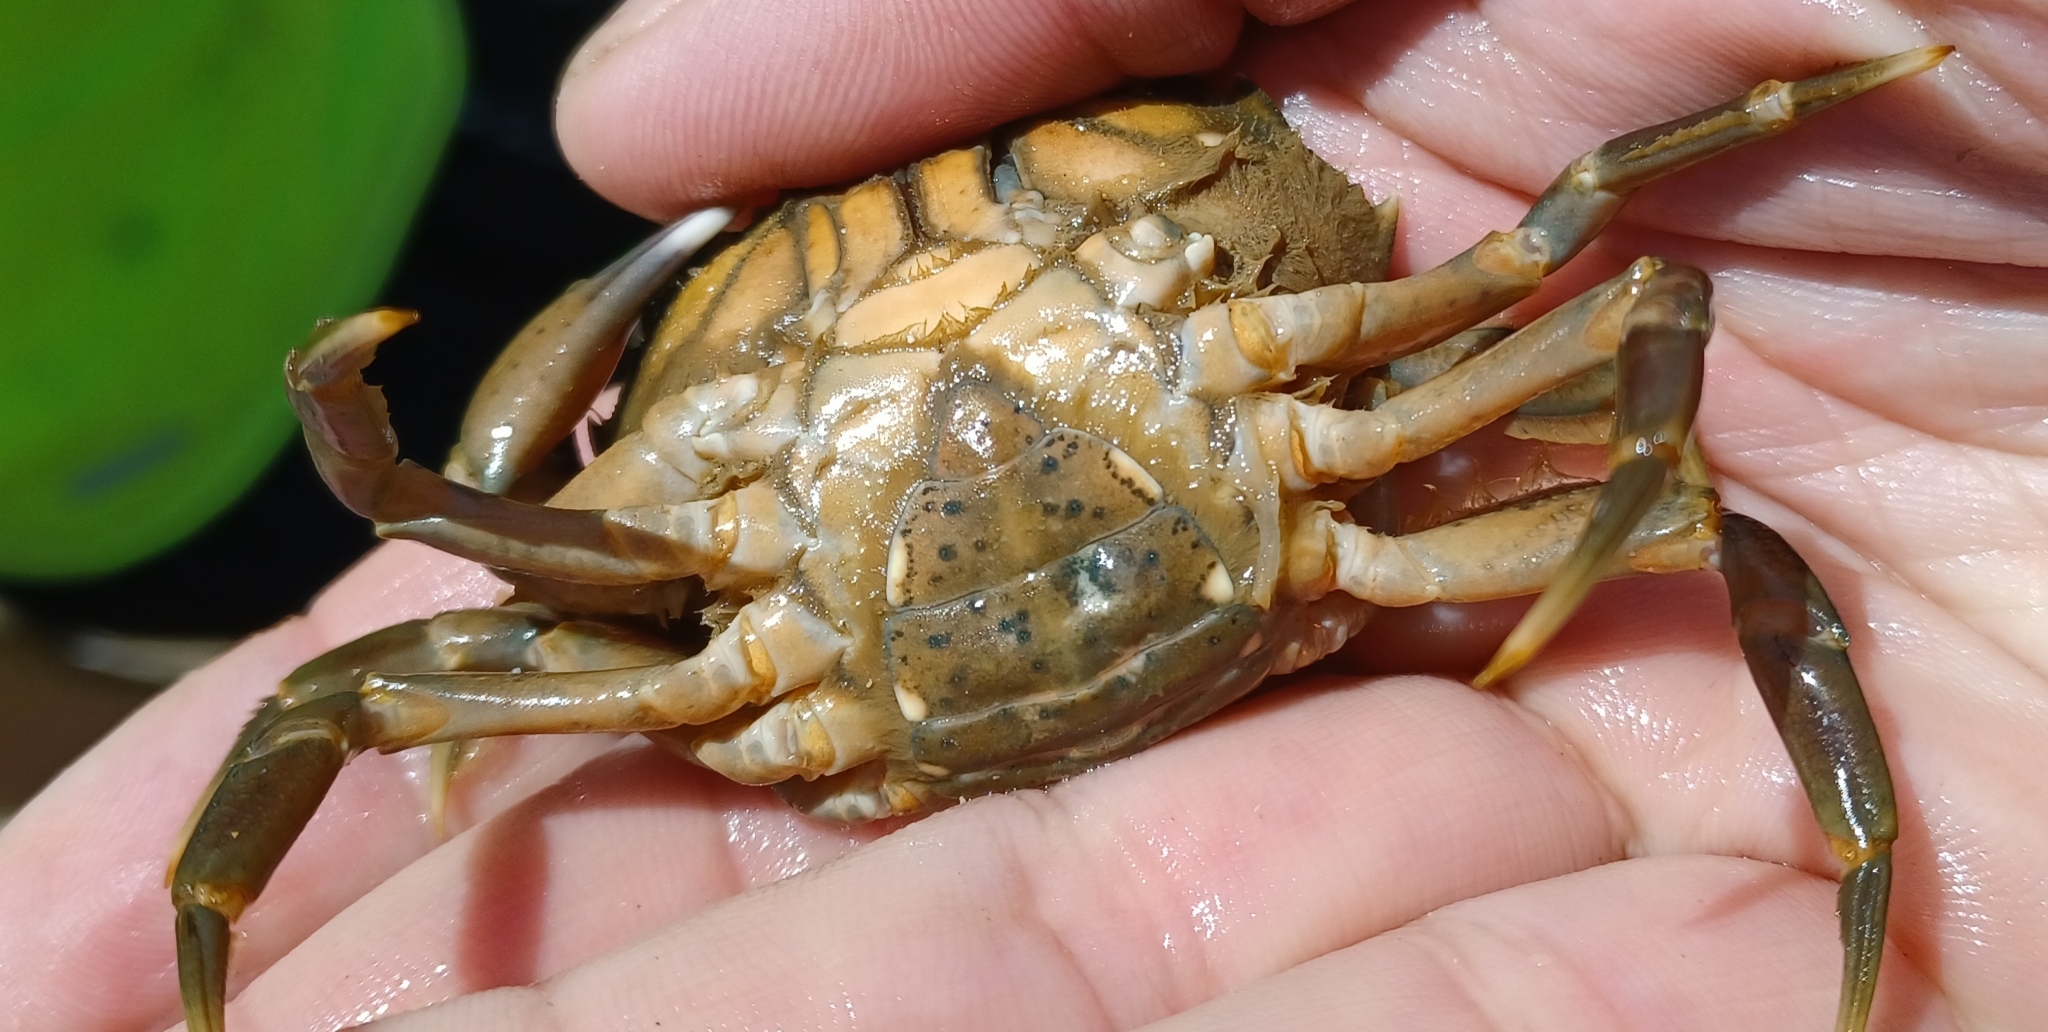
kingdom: Animalia
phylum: Arthropoda
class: Malacostraca
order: Decapoda
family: Carcinidae
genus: Carcinus
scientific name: Carcinus maenas
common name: European green crab
